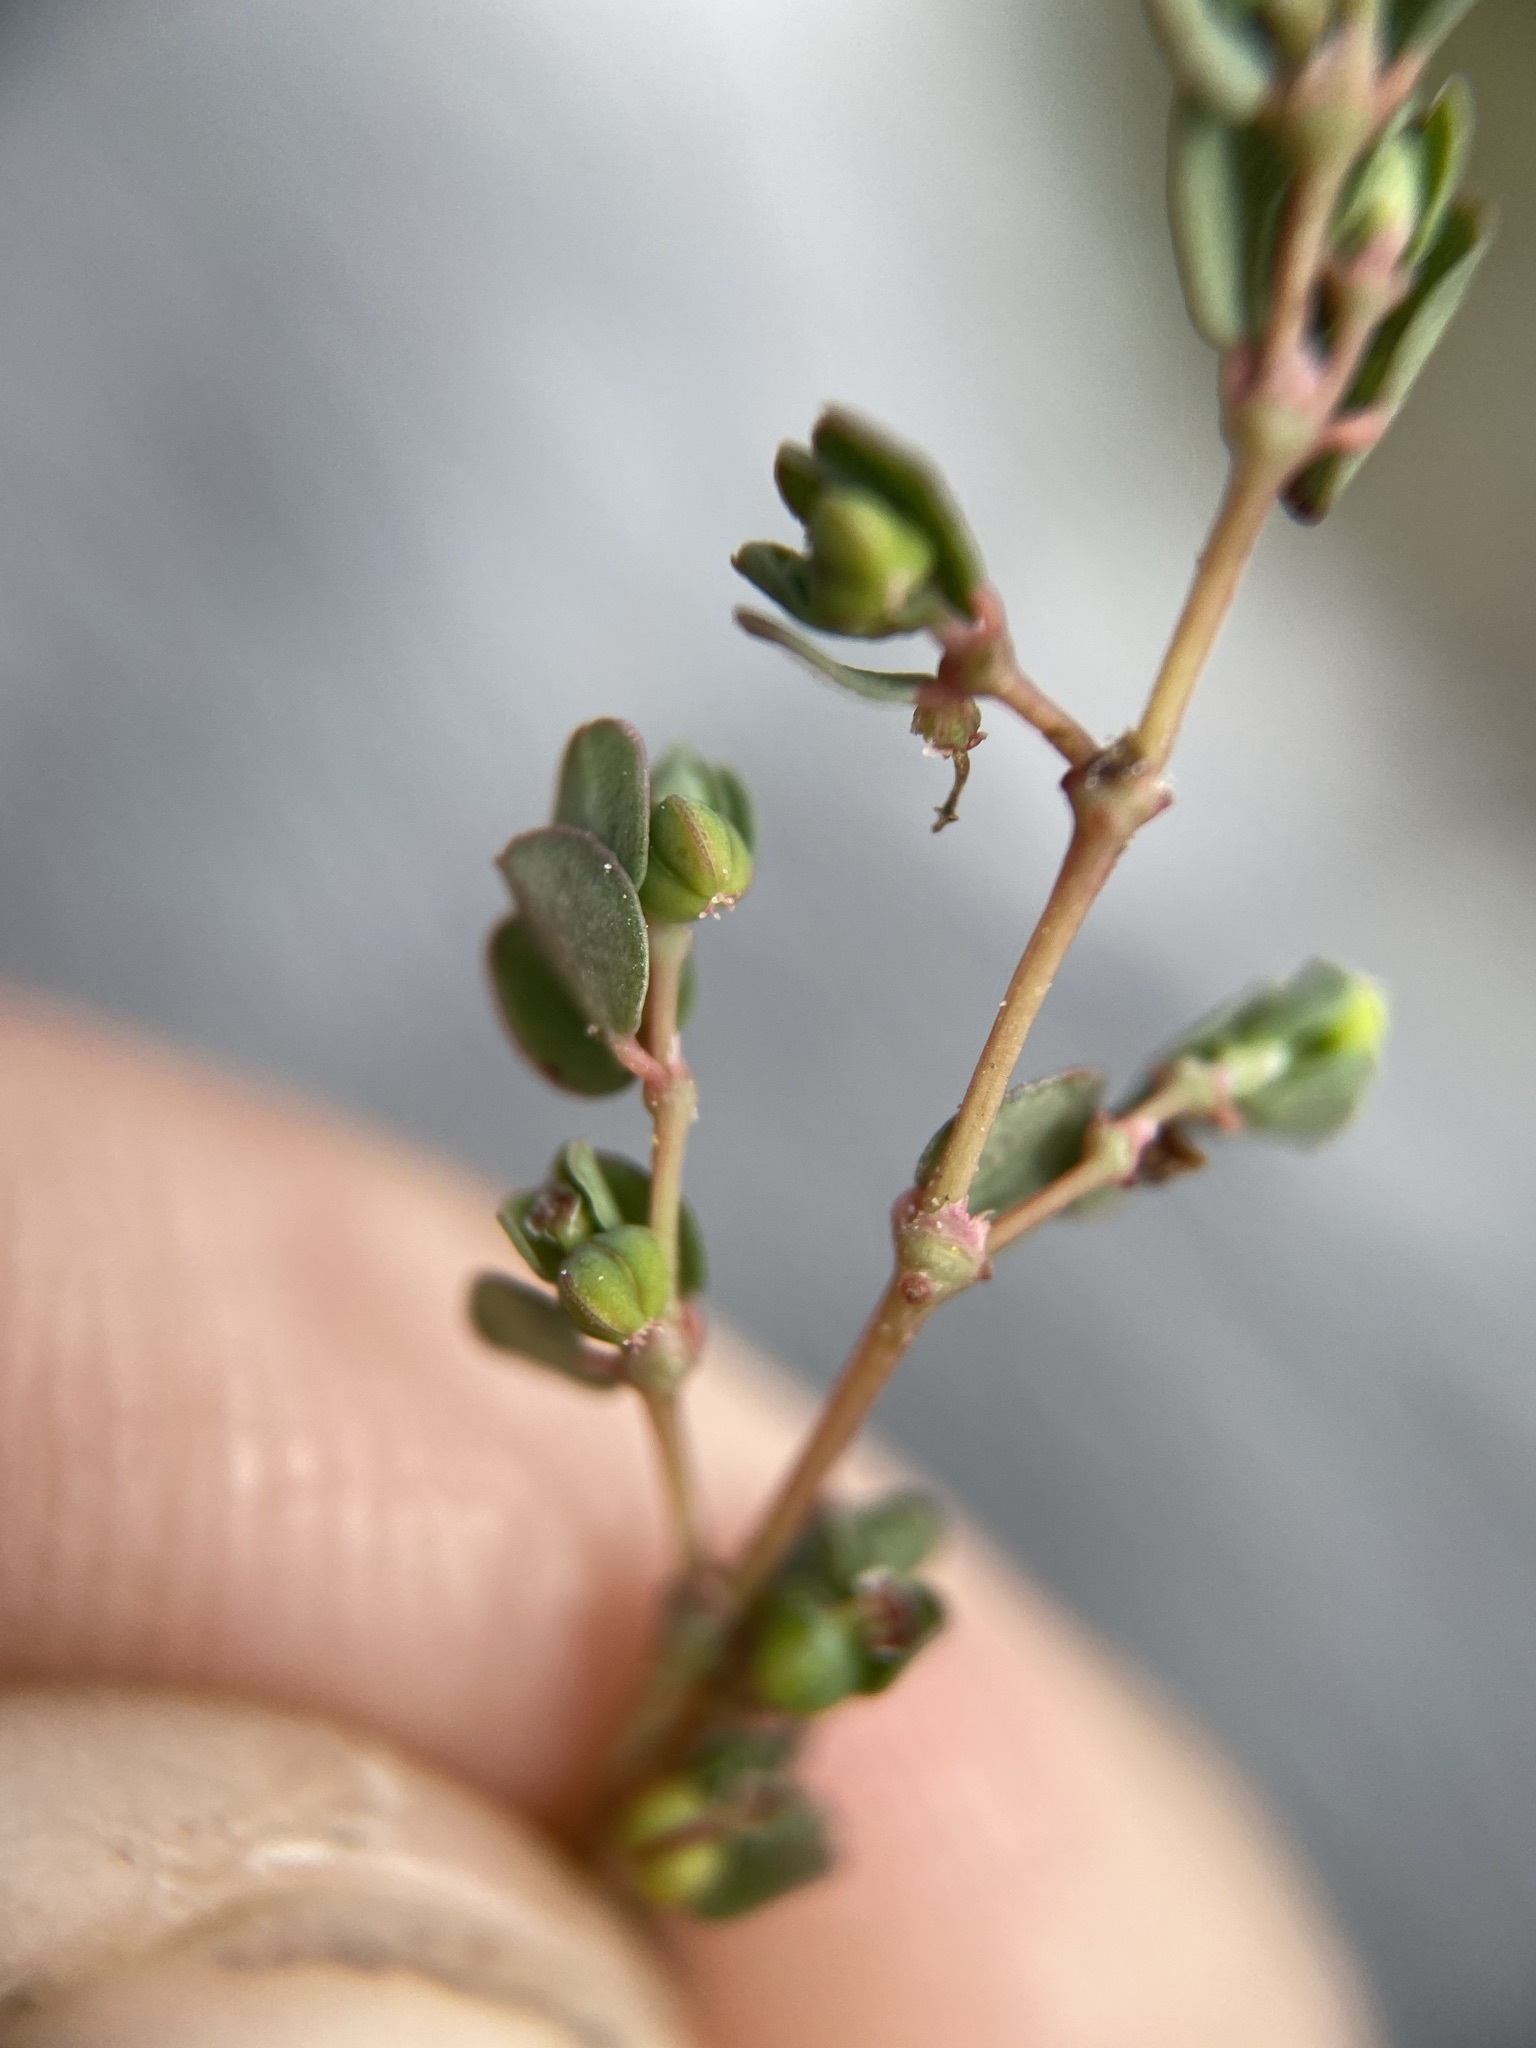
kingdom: Plantae
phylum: Tracheophyta
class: Magnoliopsida
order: Malpighiales
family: Euphorbiaceae
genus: Euphorbia
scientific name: Euphorbia serpens
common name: Matted sandmat
